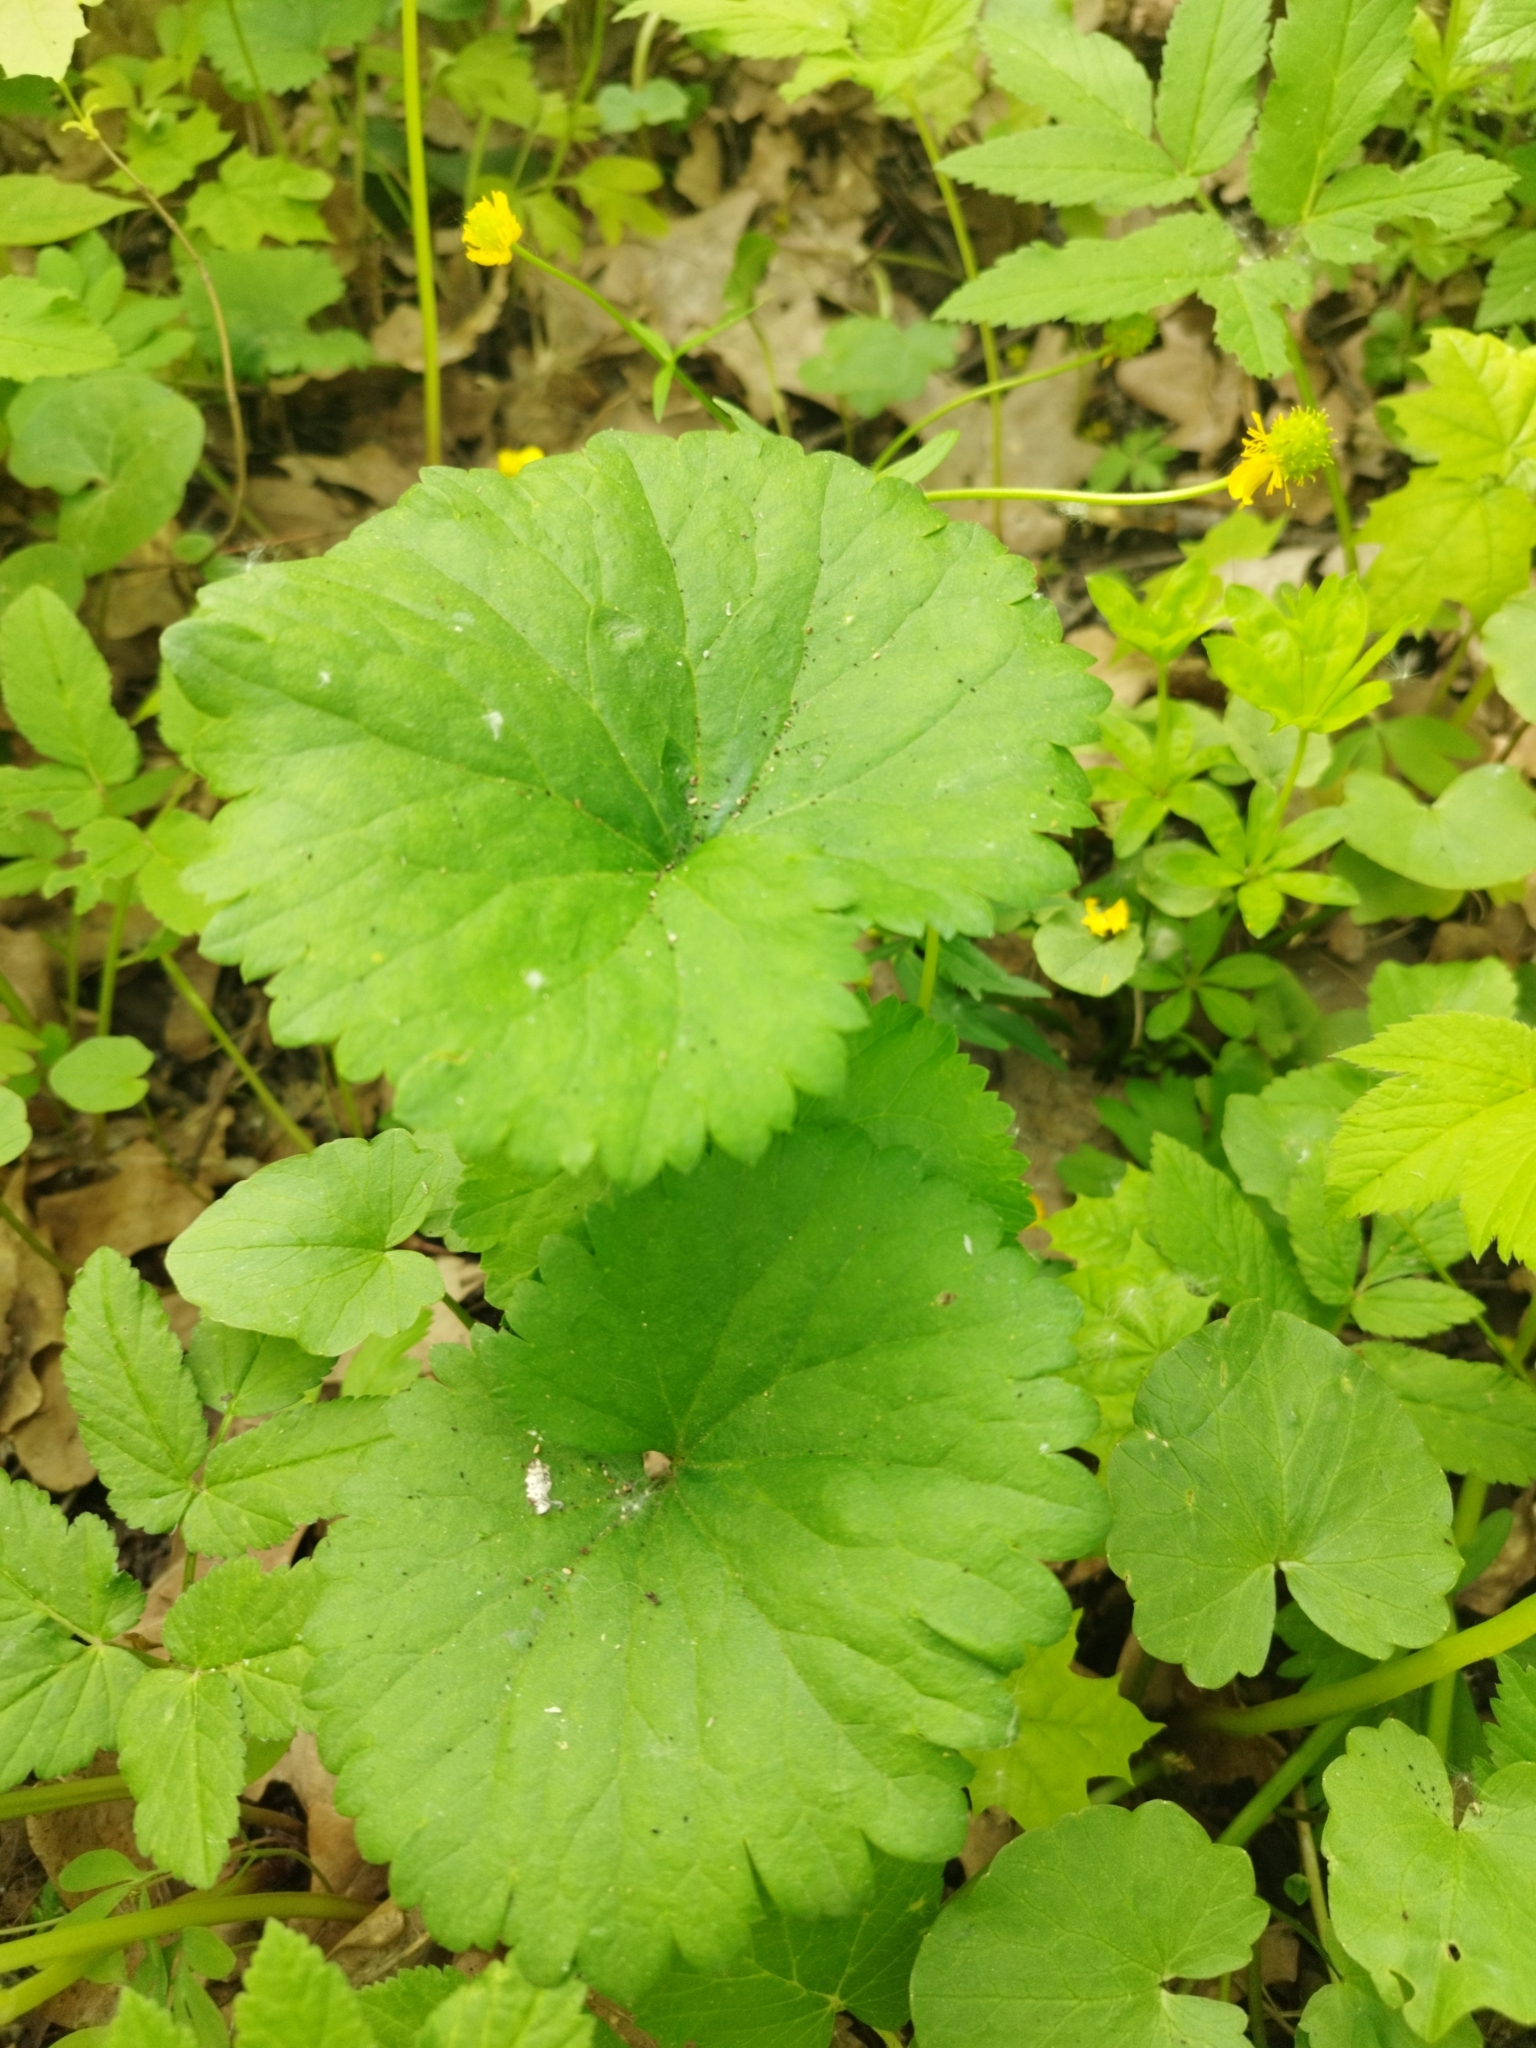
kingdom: Plantae
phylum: Tracheophyta
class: Magnoliopsida
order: Ranunculales
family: Ranunculaceae
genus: Ranunculus
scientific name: Ranunculus cassubicus
